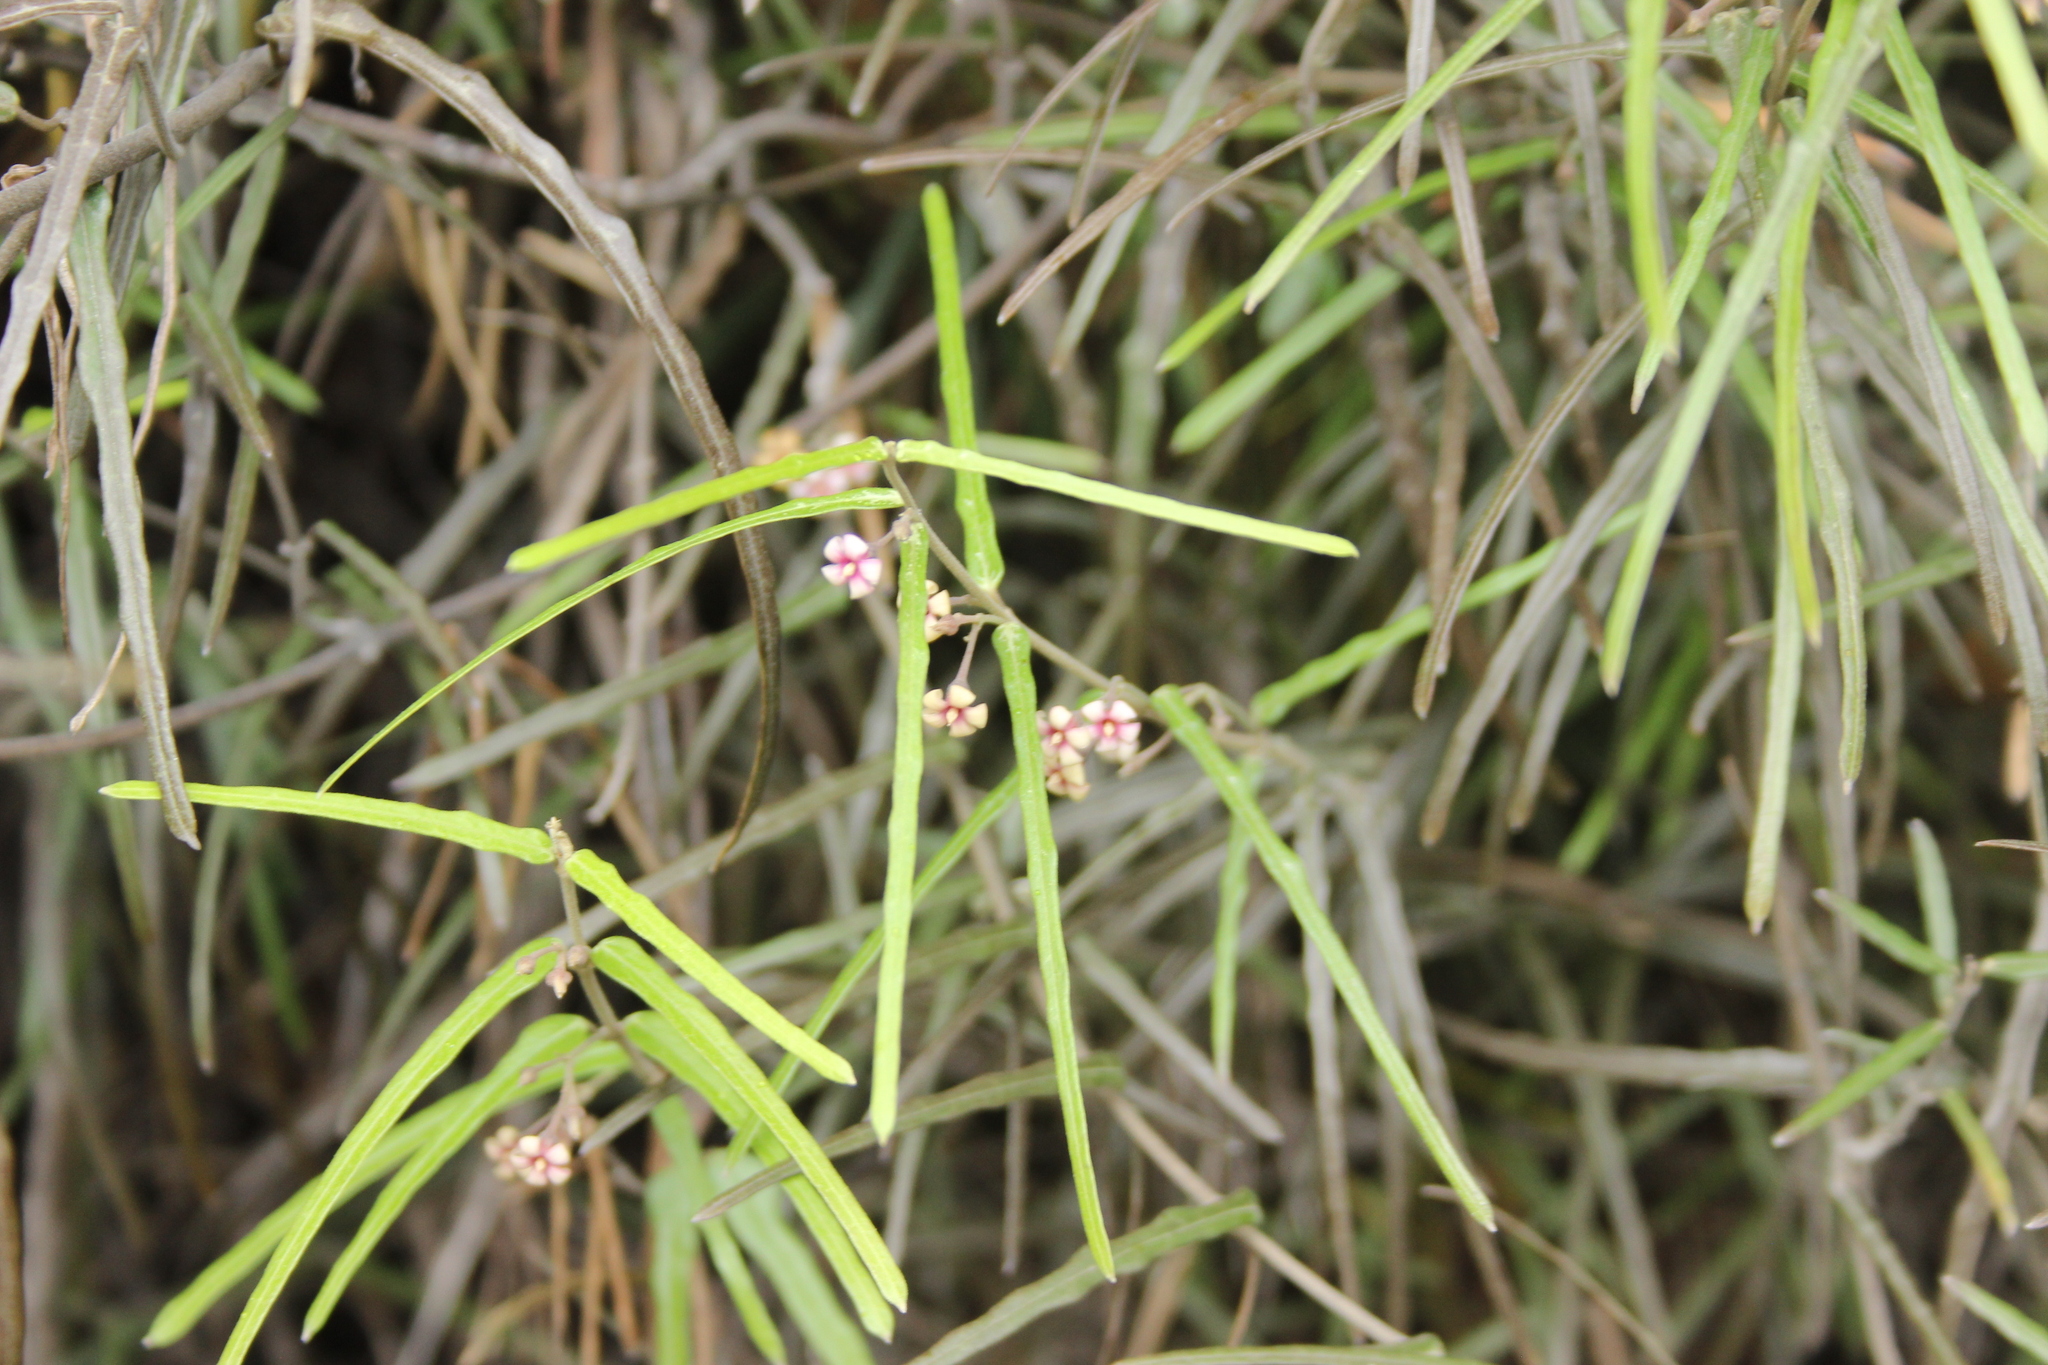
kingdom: Plantae
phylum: Tracheophyta
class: Magnoliopsida
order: Gentianales
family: Apocynaceae
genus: Parsonsia
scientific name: Parsonsia capsularis
